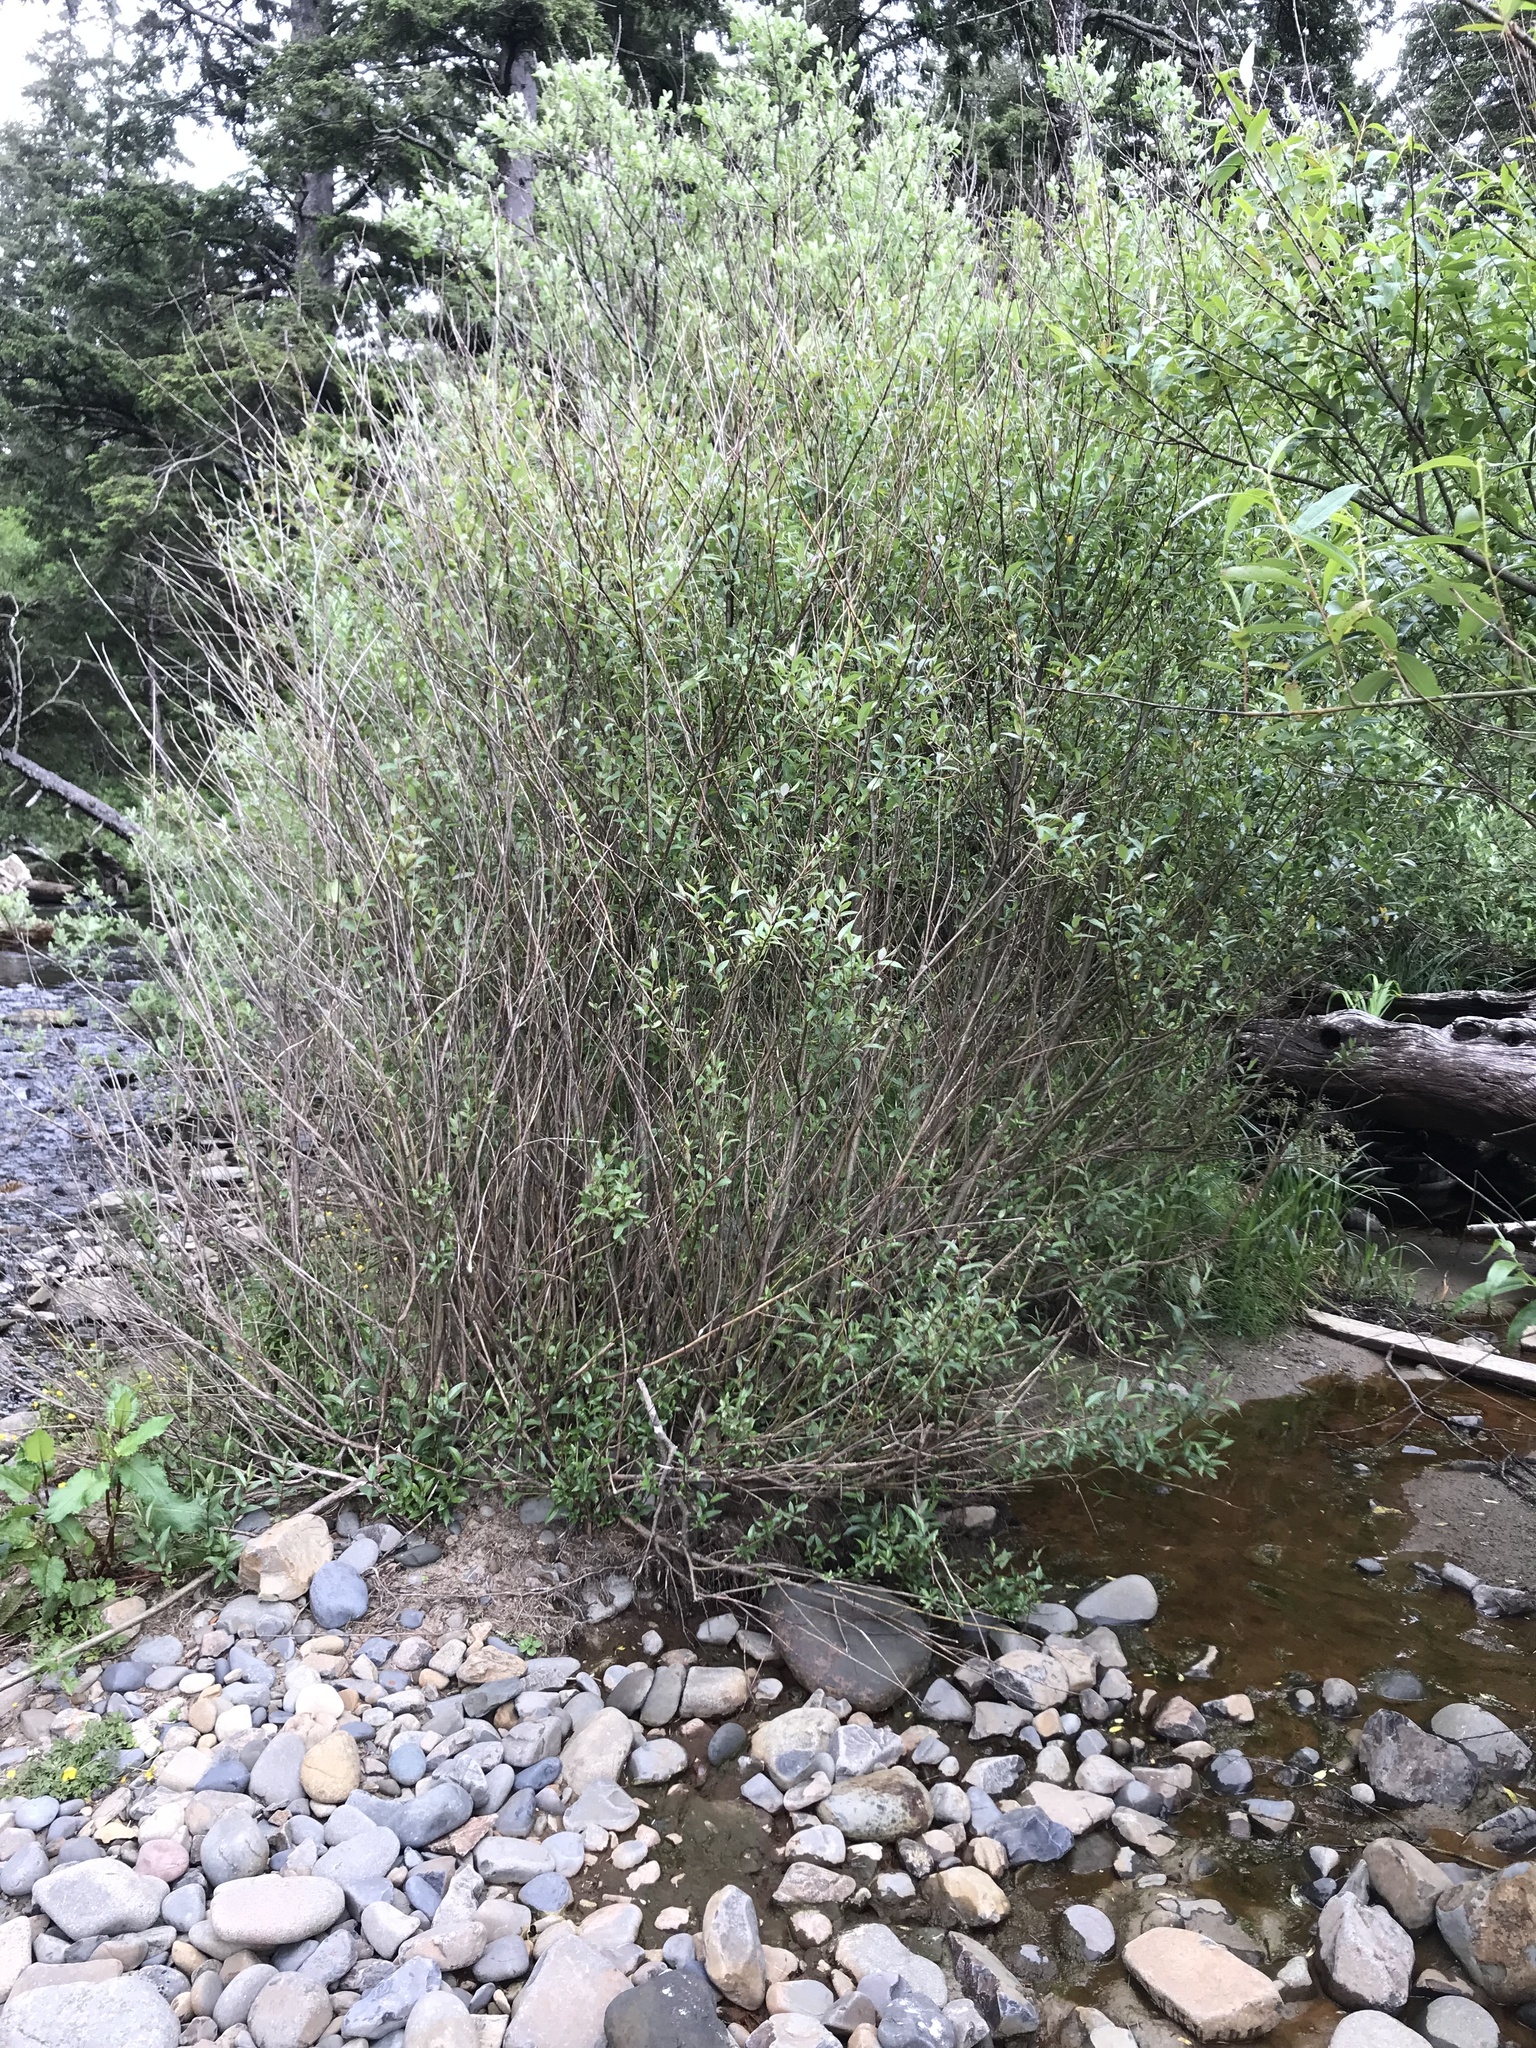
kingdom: Plantae
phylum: Tracheophyta
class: Magnoliopsida
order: Malpighiales
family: Salicaceae
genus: Salix
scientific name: Salix lucida
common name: Shining willow
